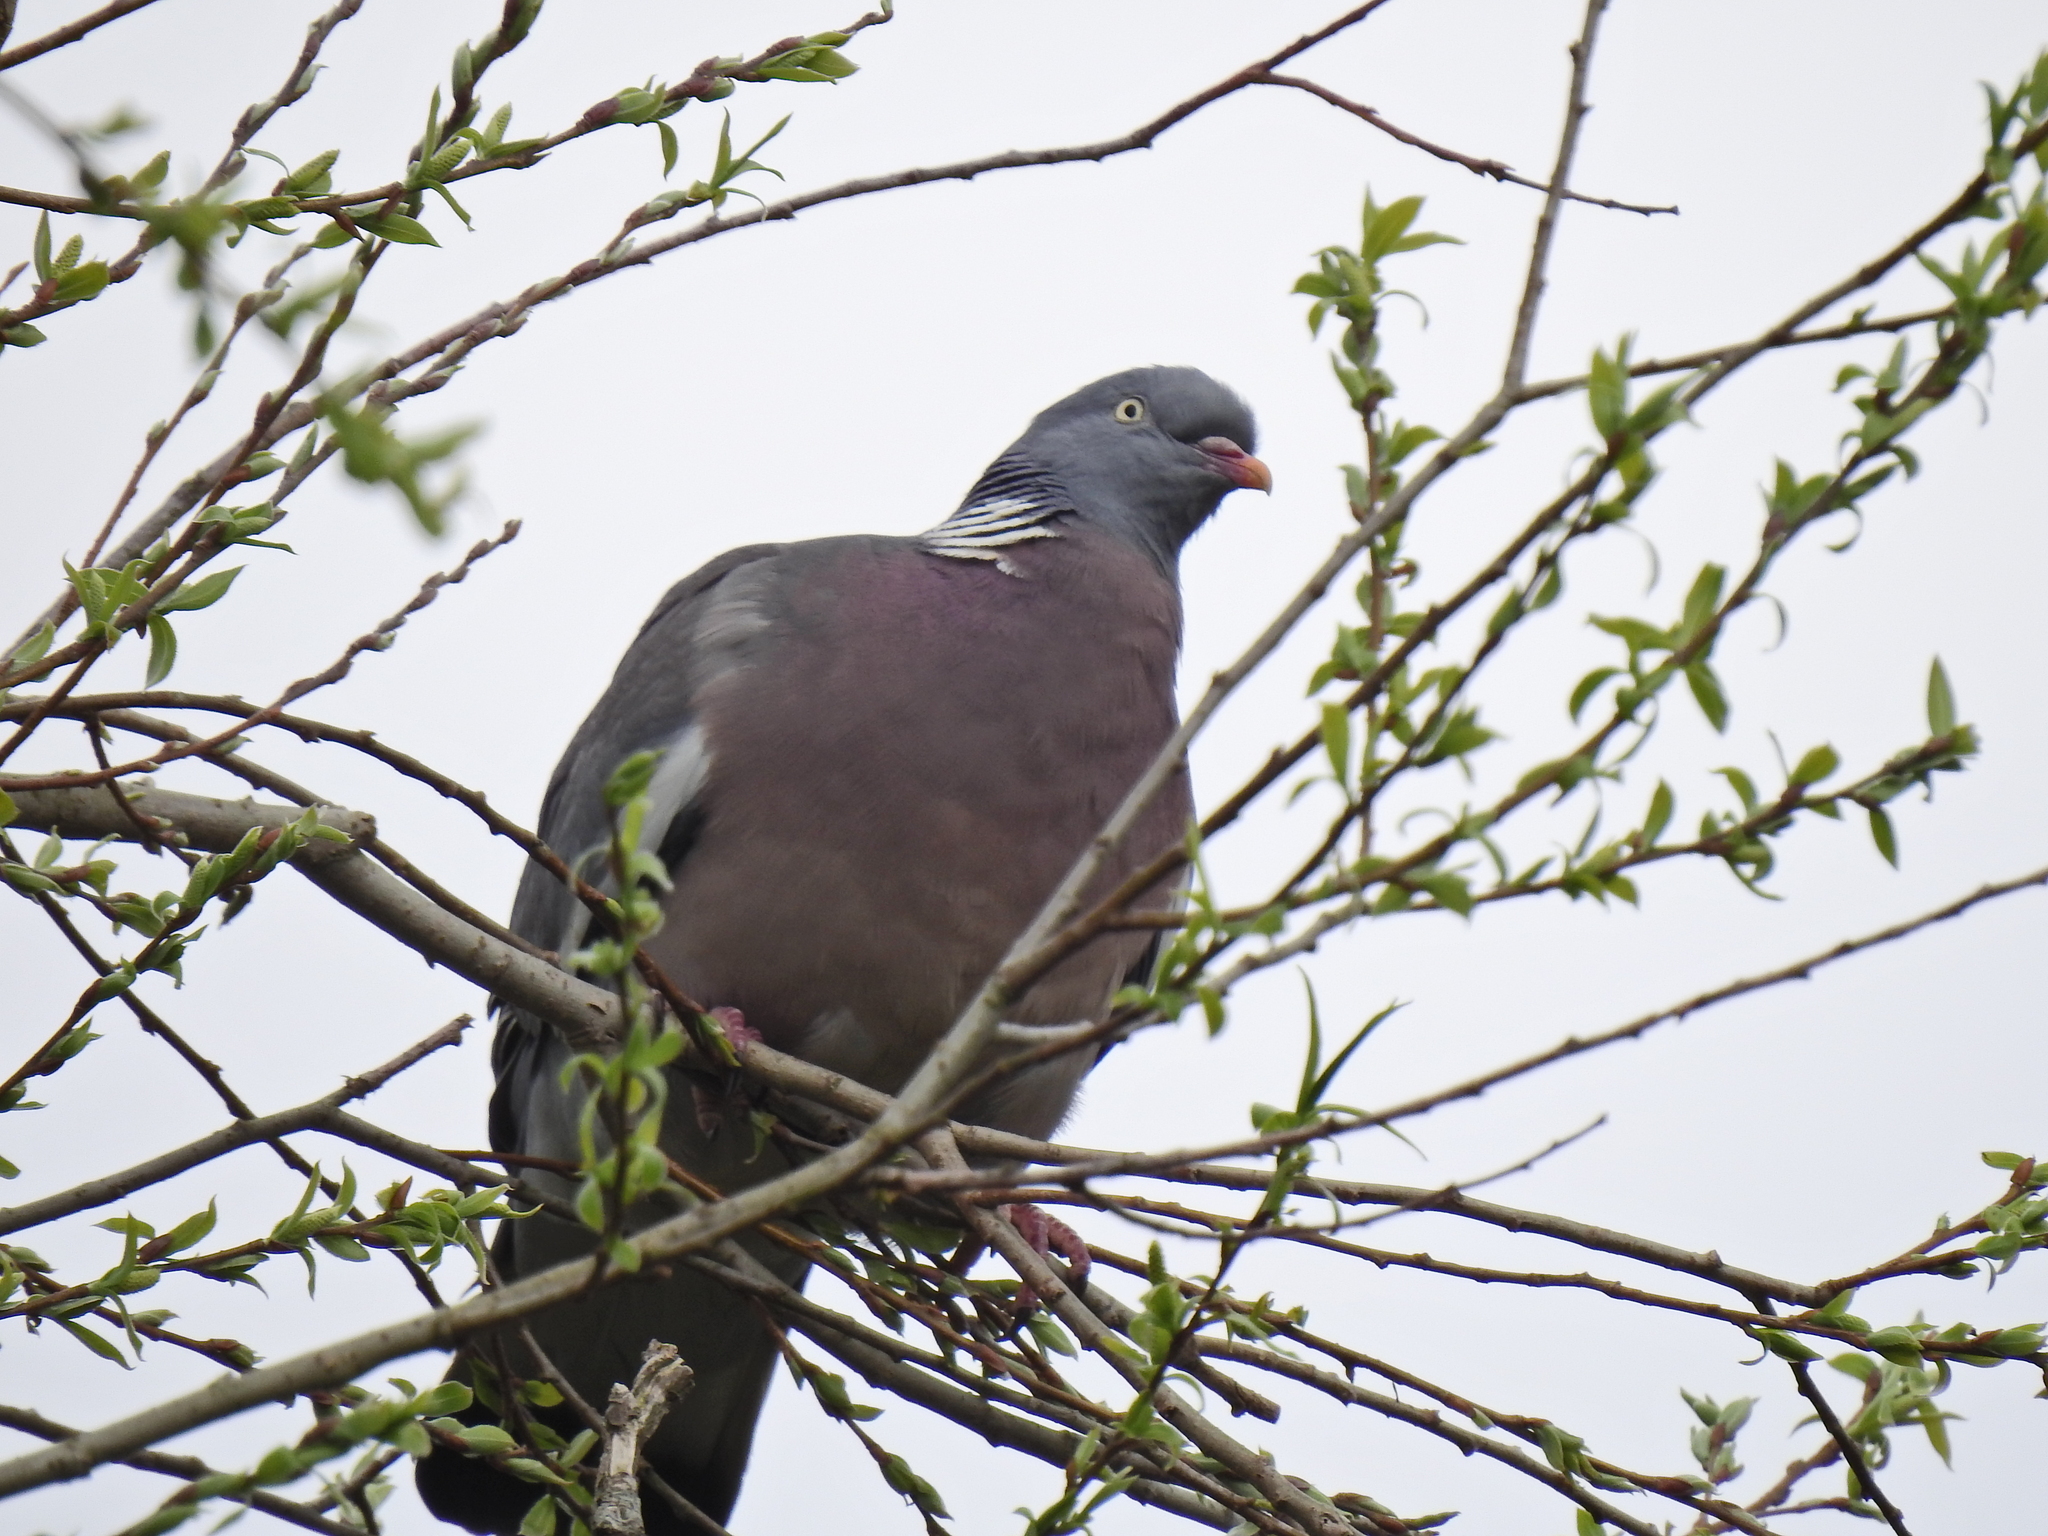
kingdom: Animalia
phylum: Chordata
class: Aves
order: Columbiformes
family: Columbidae
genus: Columba
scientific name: Columba palumbus
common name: Common wood pigeon
